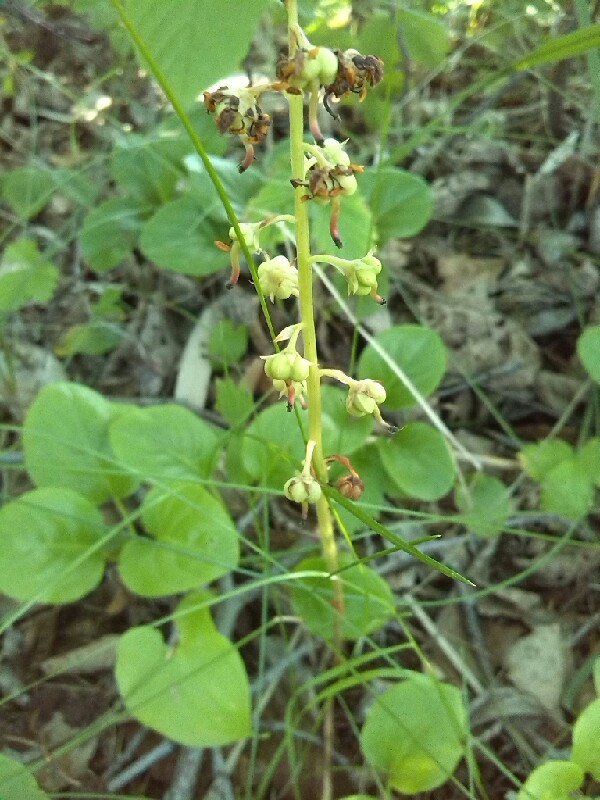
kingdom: Plantae
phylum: Tracheophyta
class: Magnoliopsida
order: Ericales
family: Ericaceae
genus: Pyrola
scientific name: Pyrola rotundifolia
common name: Round-leaved wintergreen
